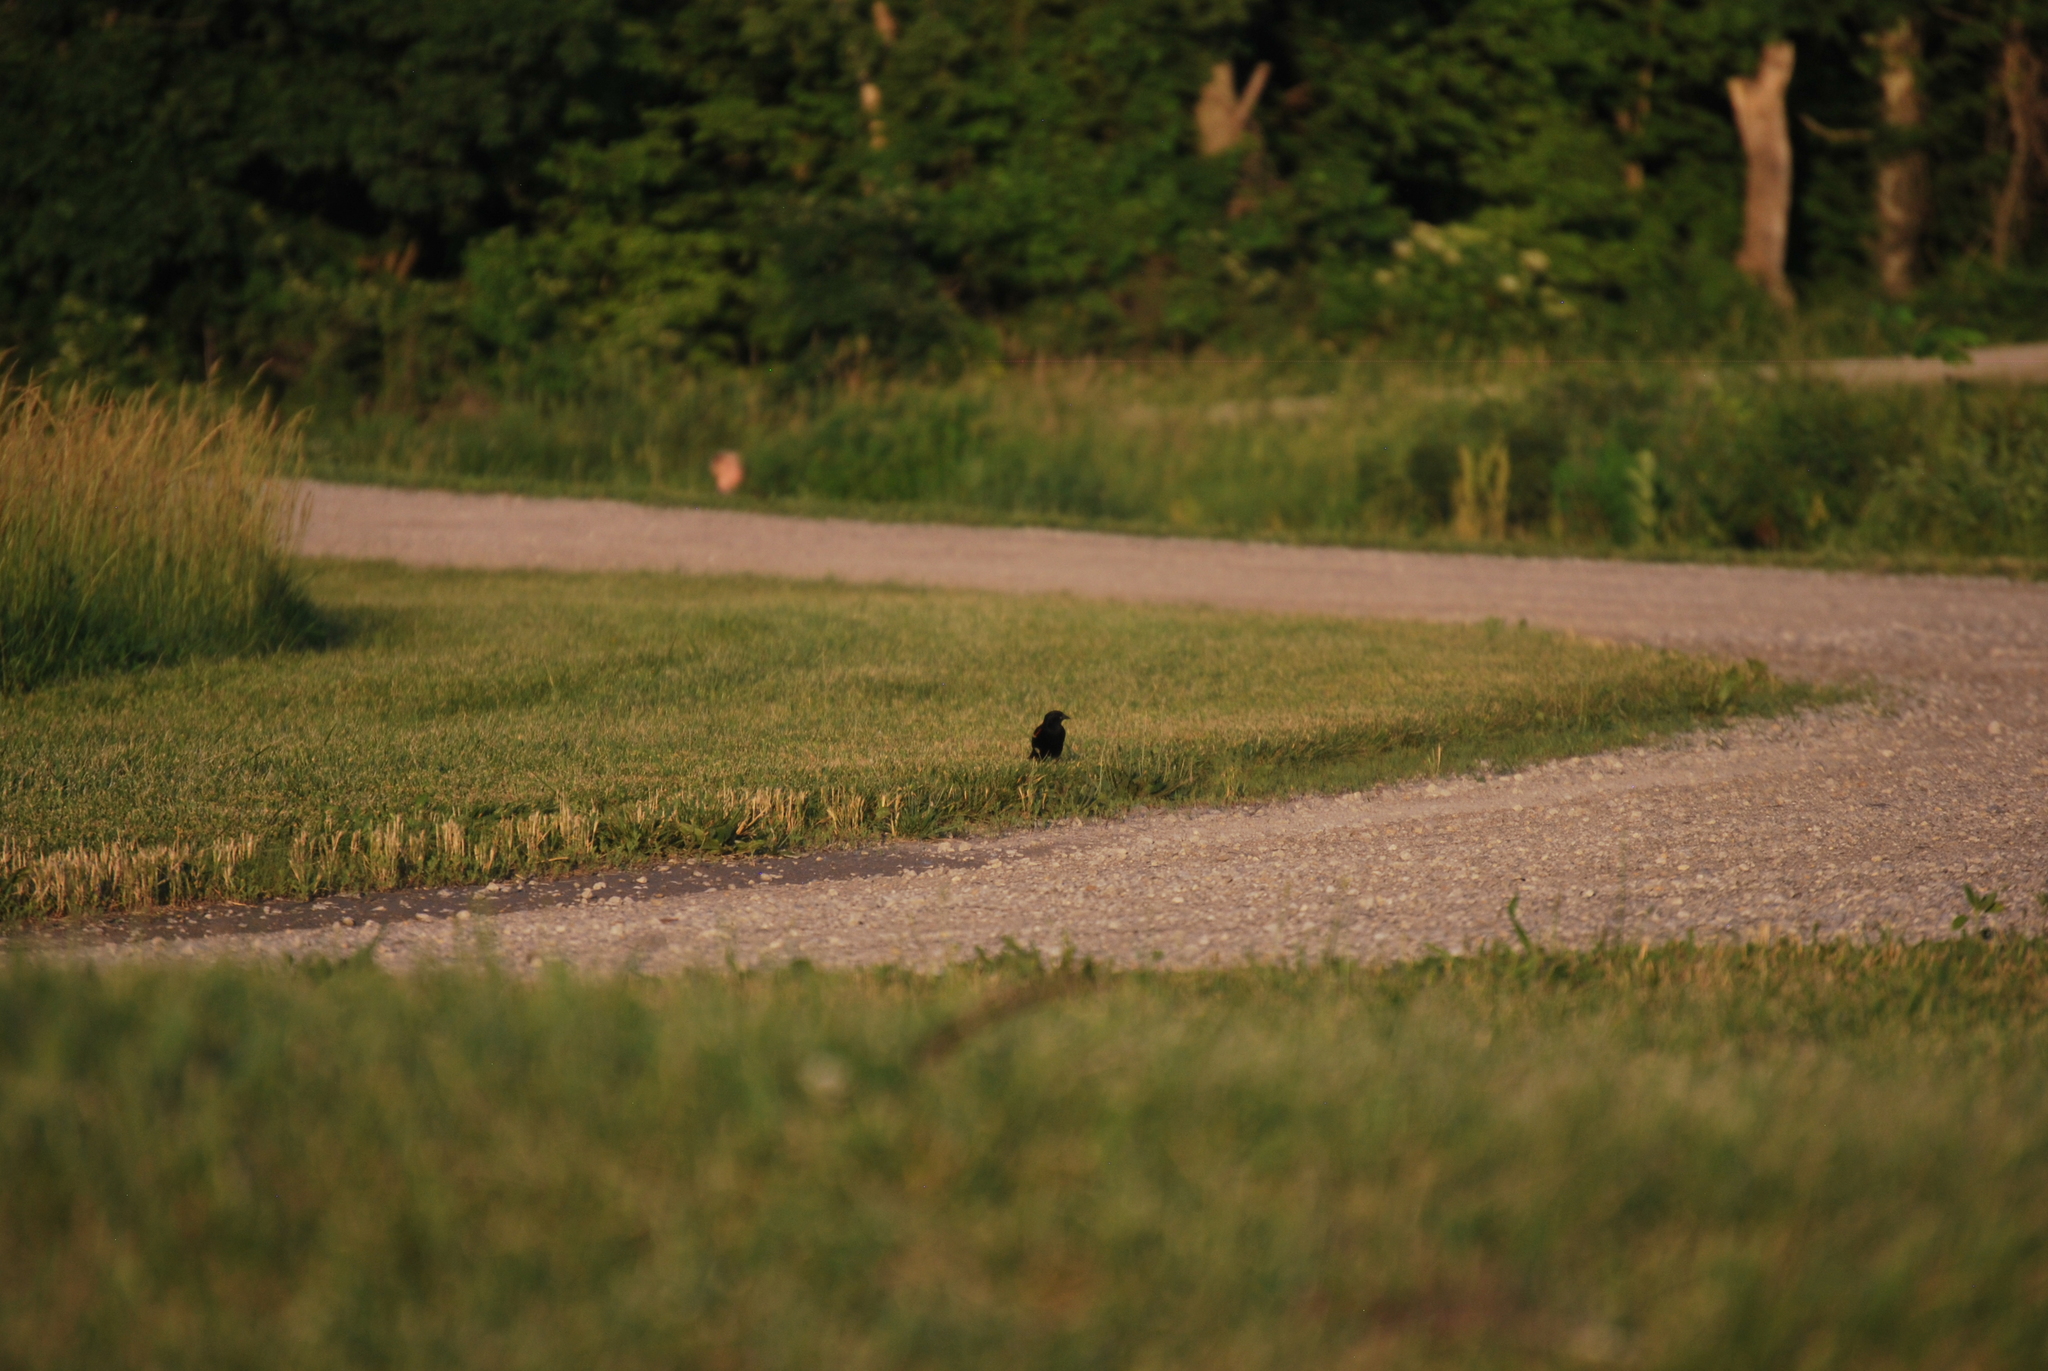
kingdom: Animalia
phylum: Chordata
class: Aves
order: Passeriformes
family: Icteridae
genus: Agelaius
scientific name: Agelaius phoeniceus
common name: Red-winged blackbird
